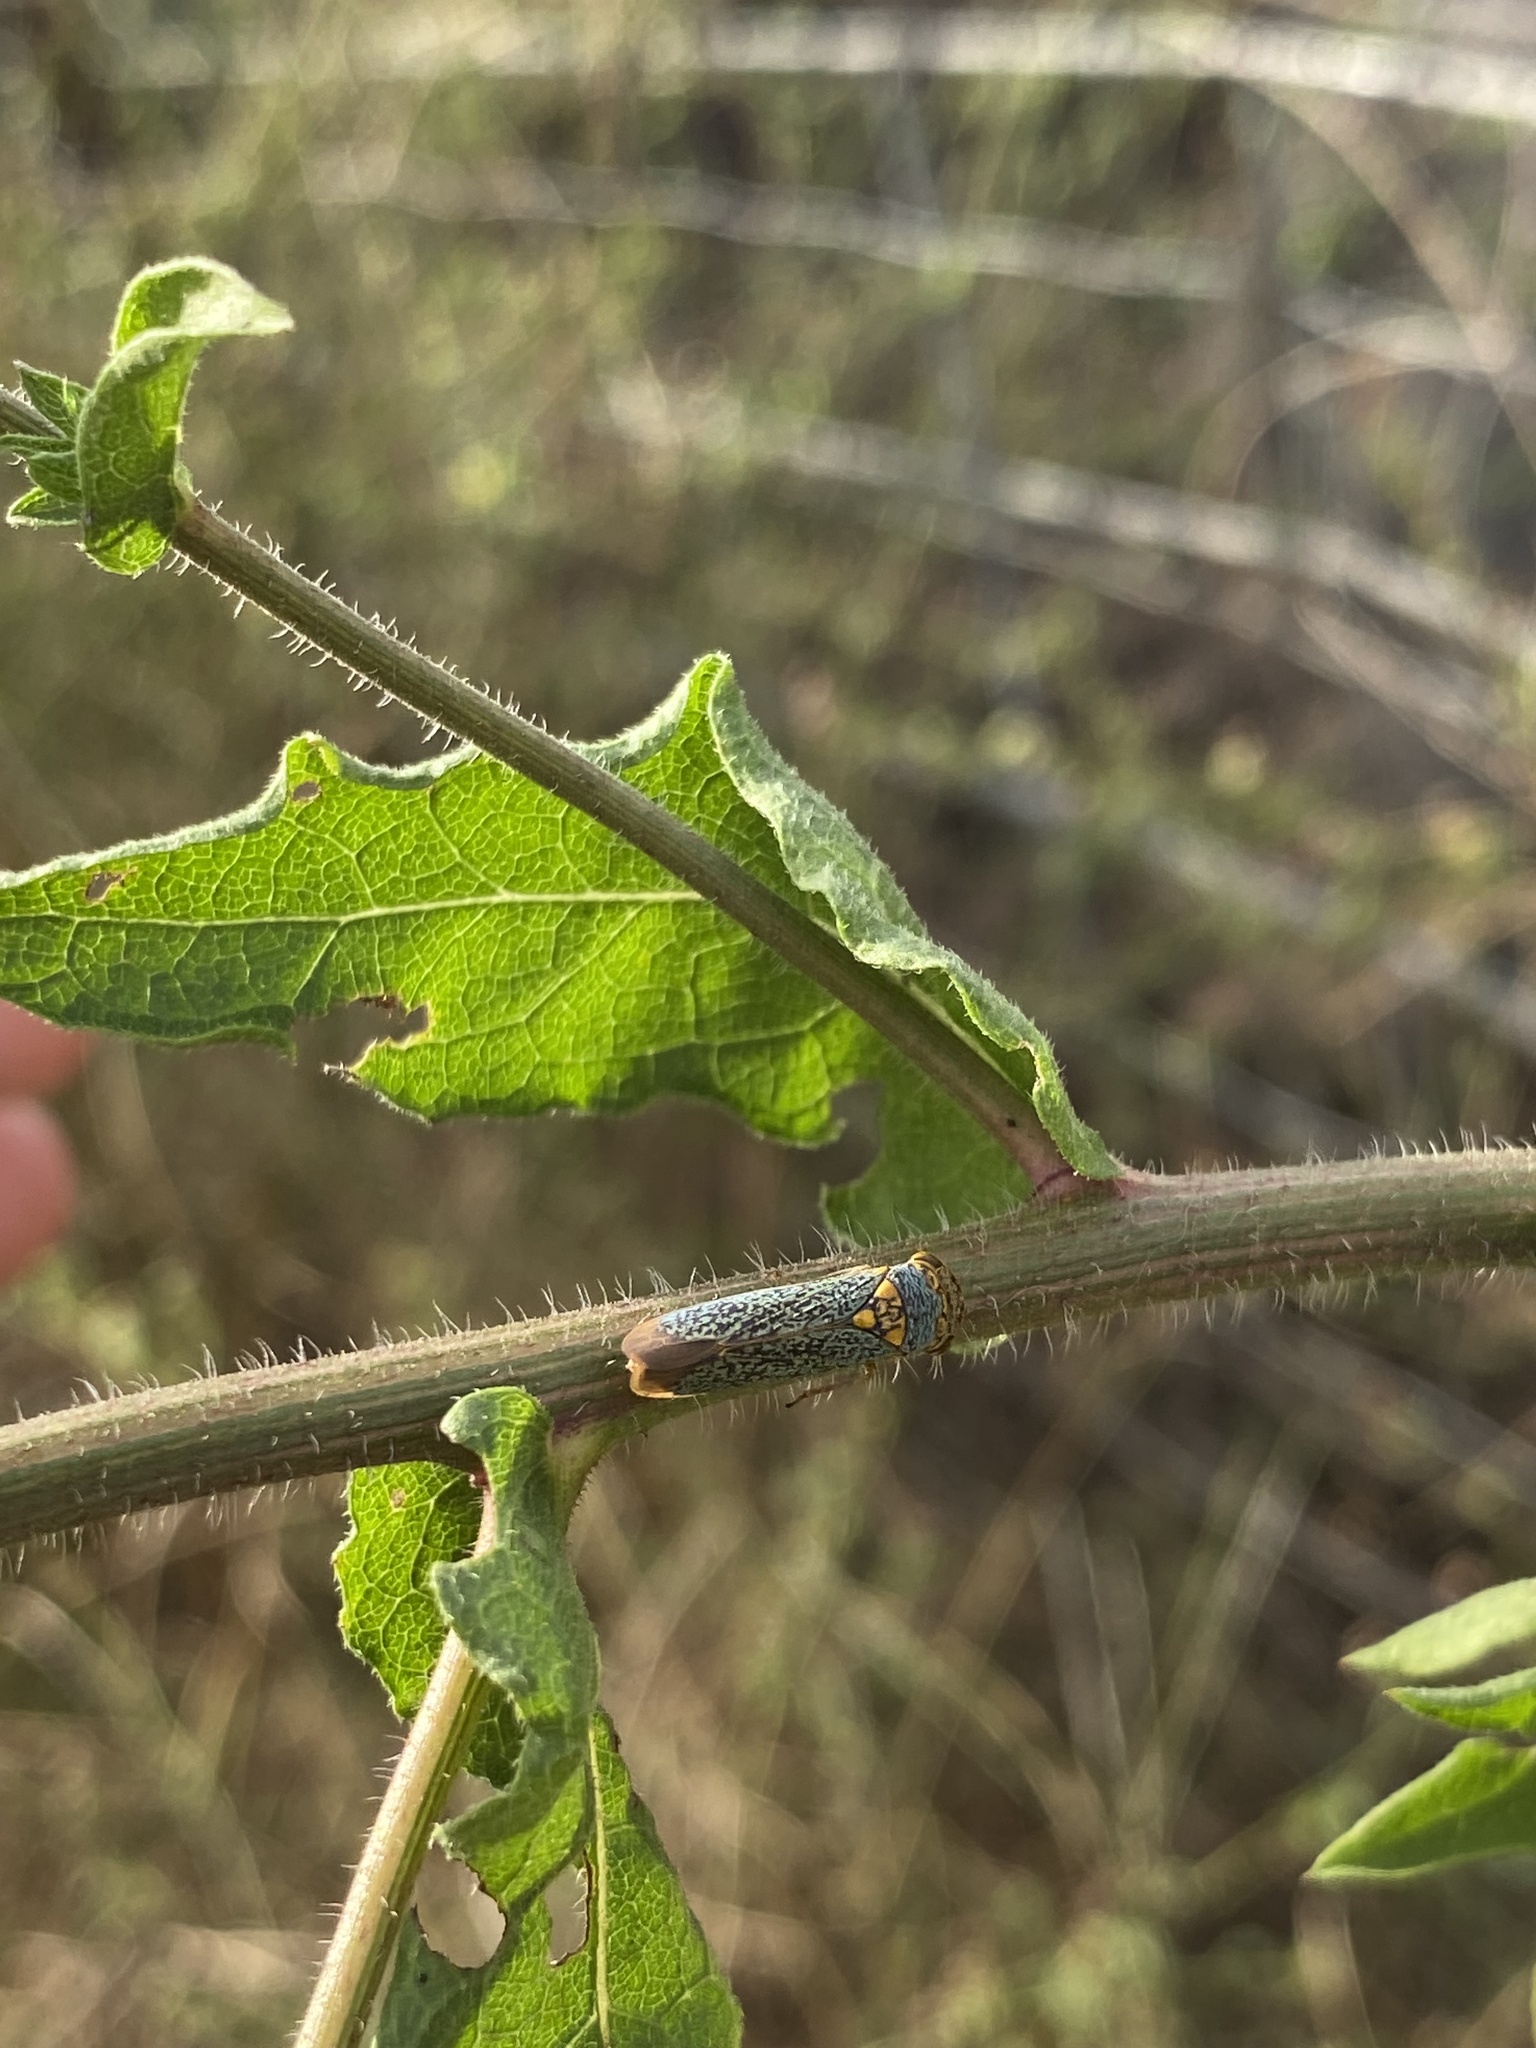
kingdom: Animalia
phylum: Arthropoda
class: Insecta
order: Hemiptera
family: Cicadellidae
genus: Oncometopia
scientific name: Oncometopia orbona
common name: Broad-headed sharpshooter
